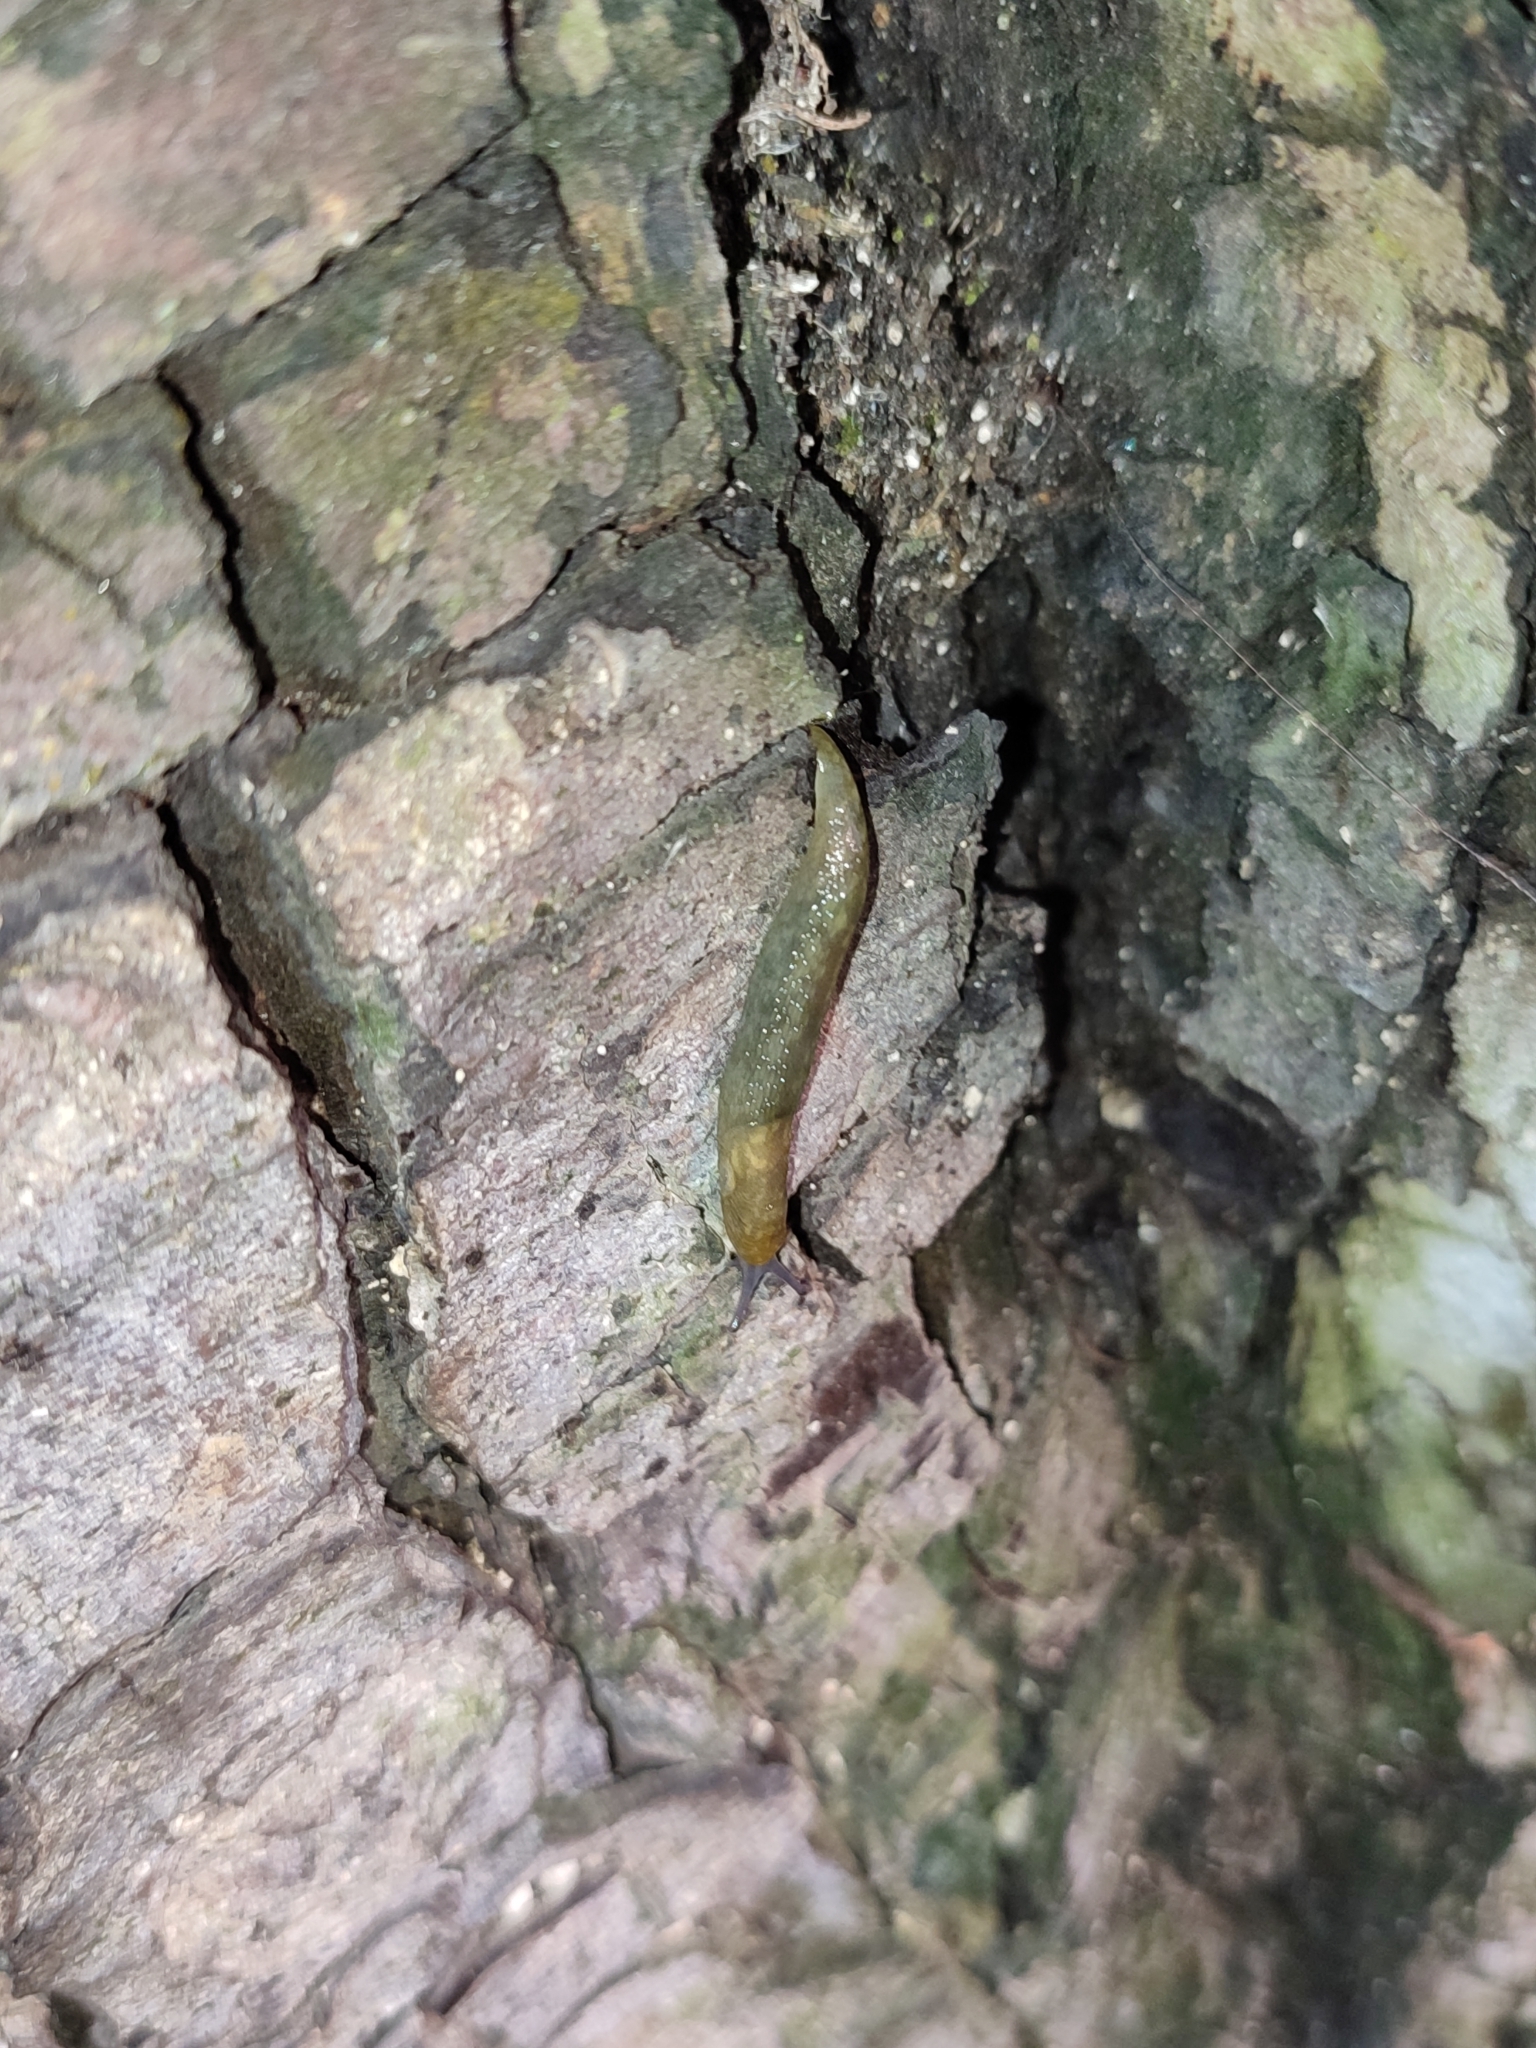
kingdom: Animalia
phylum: Mollusca
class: Gastropoda
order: Stylommatophora
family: Limacidae
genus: Limacus
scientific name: Limacus flavus
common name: Yellow gardenslug
